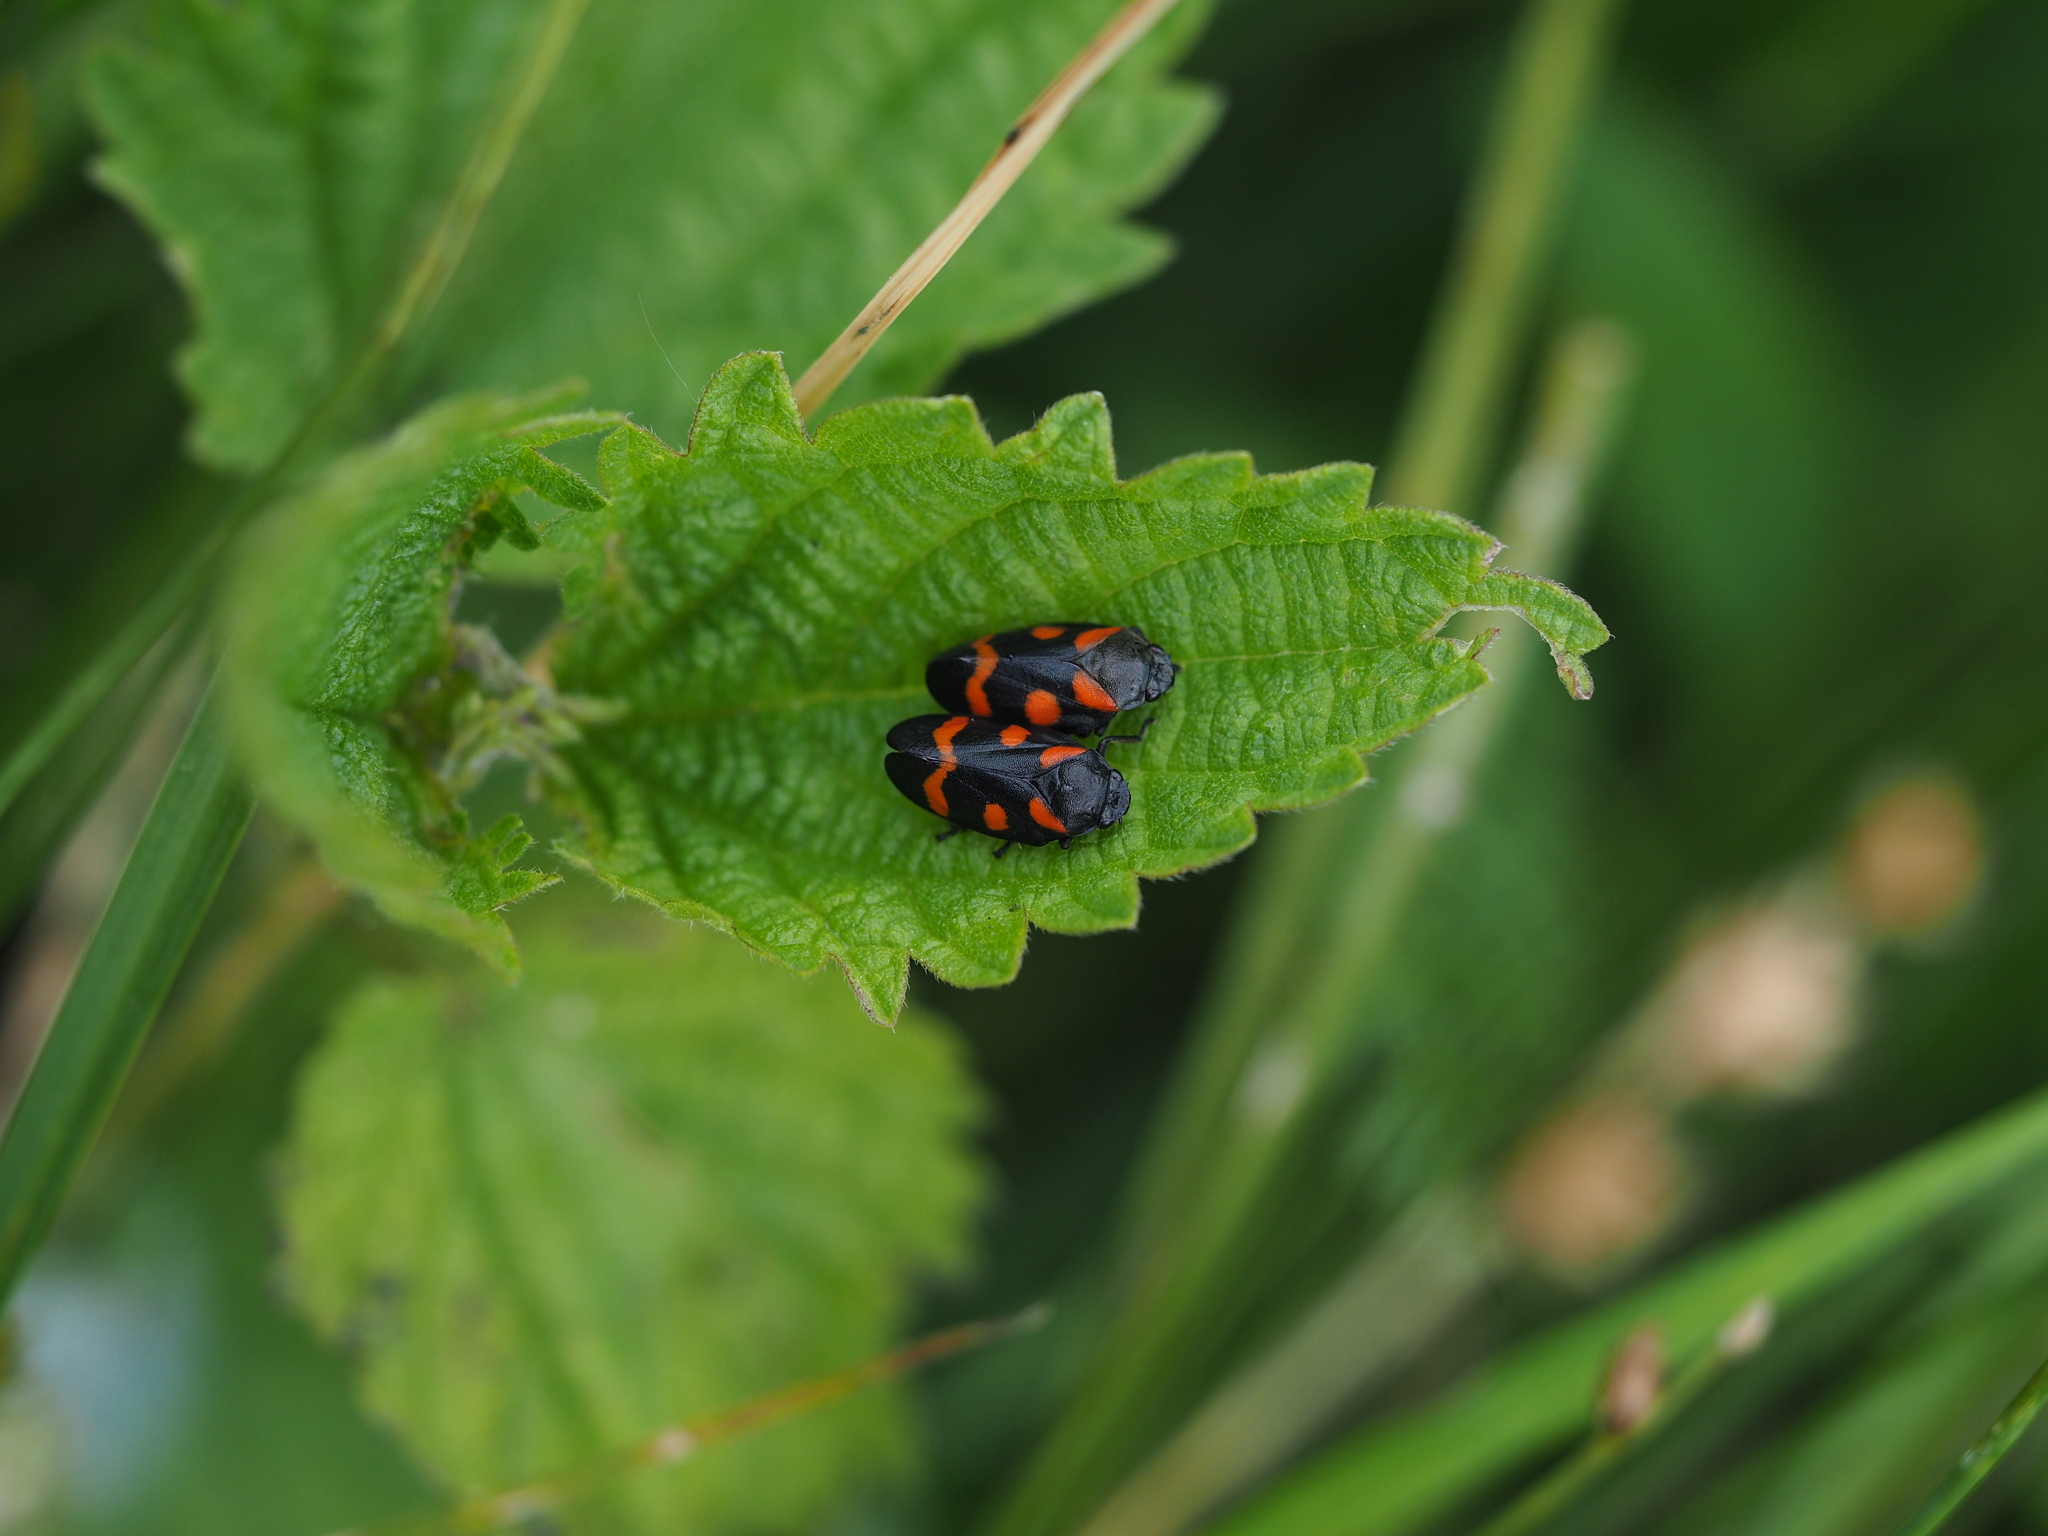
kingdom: Plantae
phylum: Tracheophyta
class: Magnoliopsida
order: Rosales
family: Urticaceae
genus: Urtica
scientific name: Urtica dioica
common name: Common nettle
